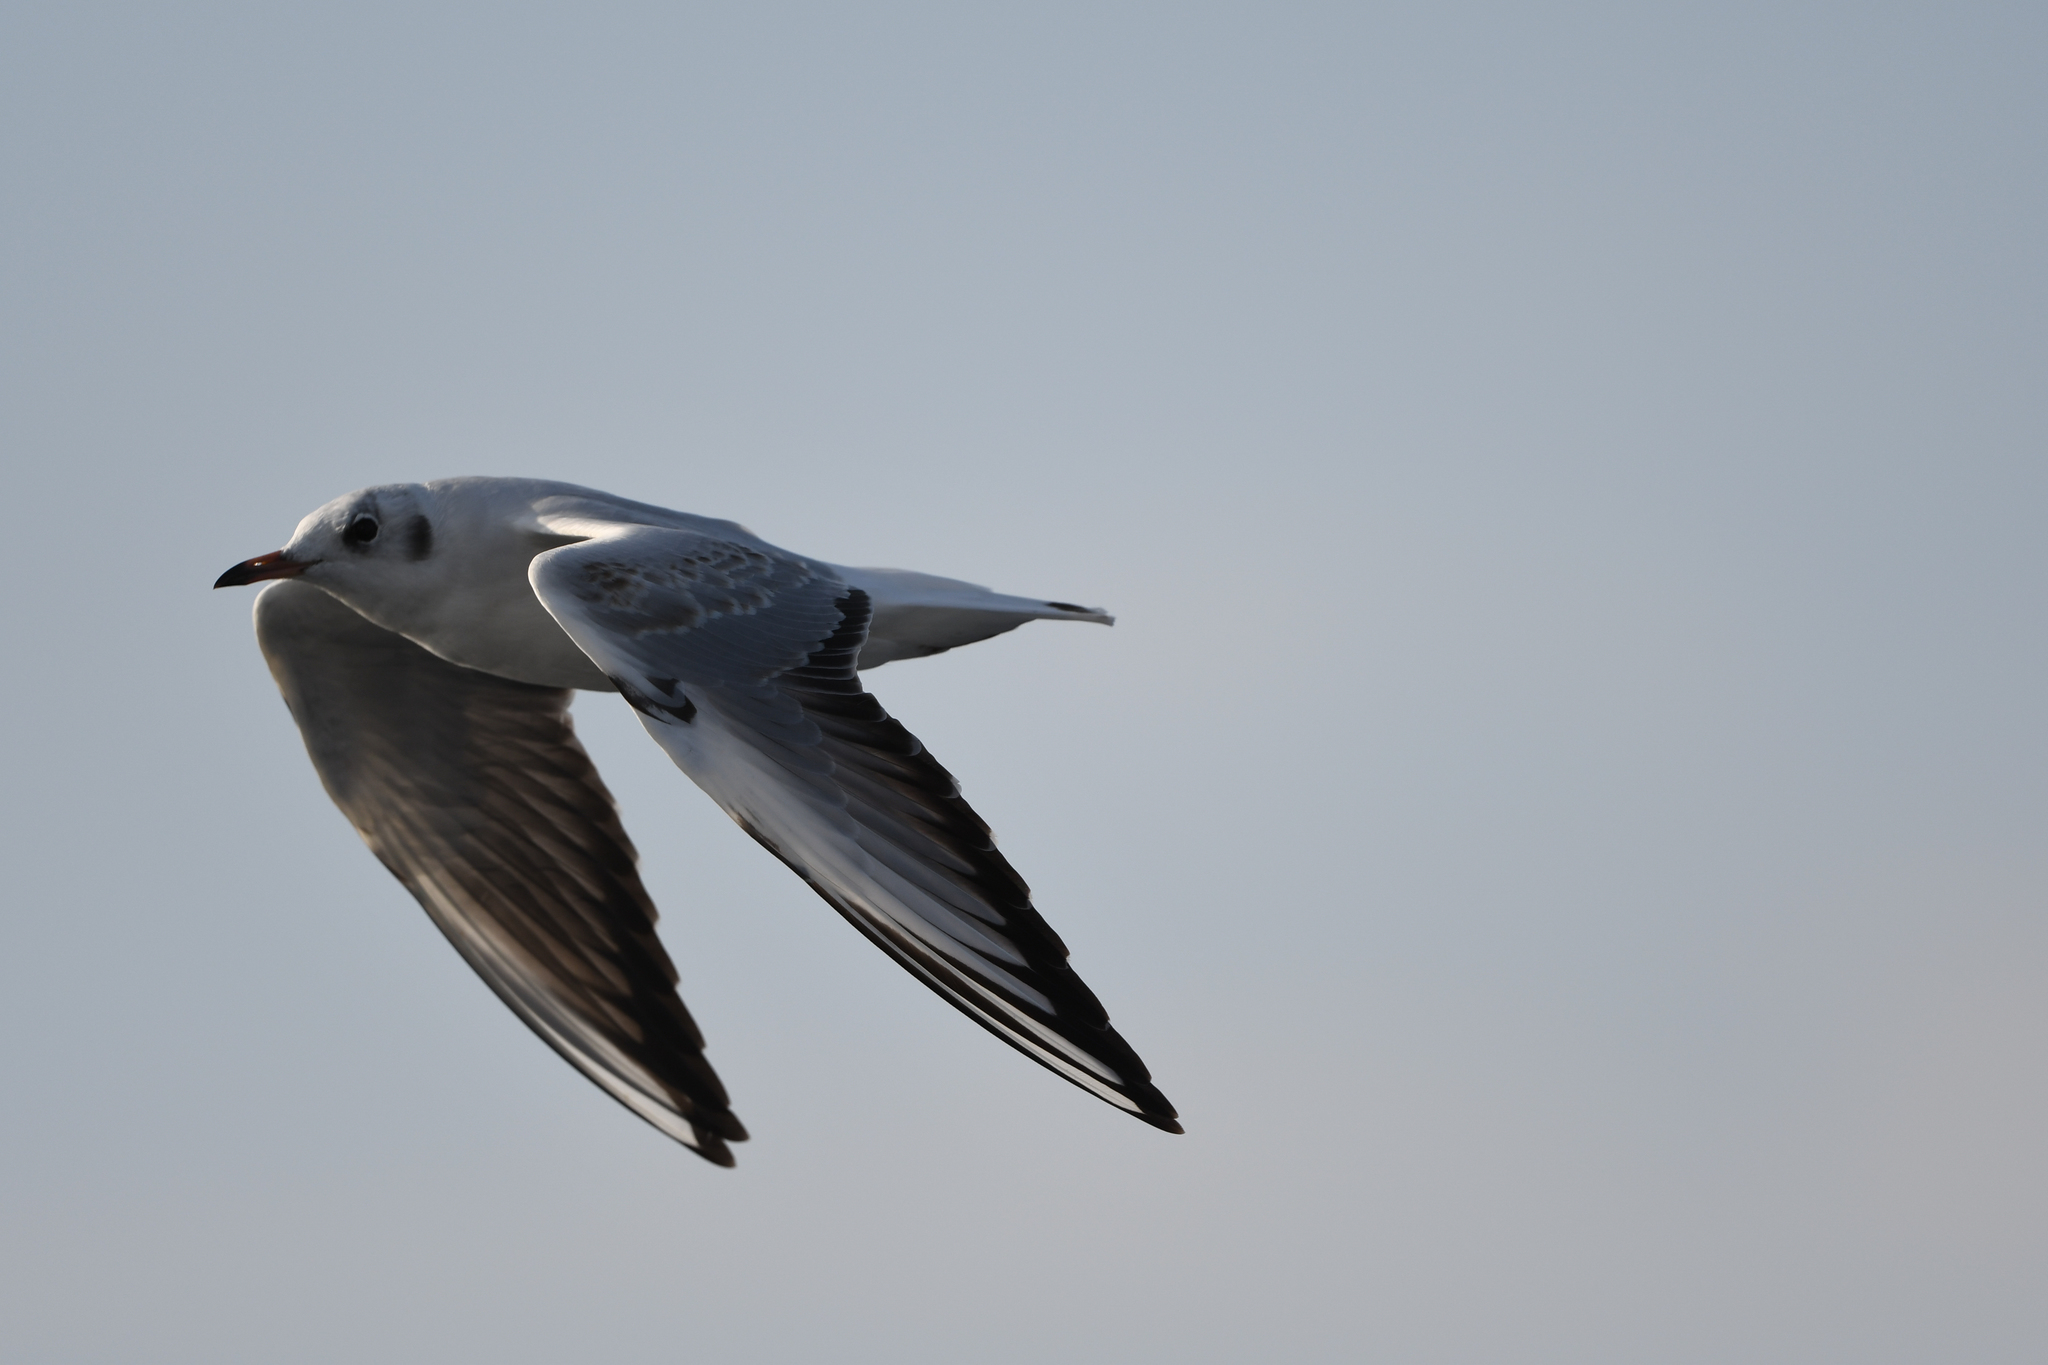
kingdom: Animalia
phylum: Chordata
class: Aves
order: Charadriiformes
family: Laridae
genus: Chroicocephalus
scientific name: Chroicocephalus ridibundus
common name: Black-headed gull
